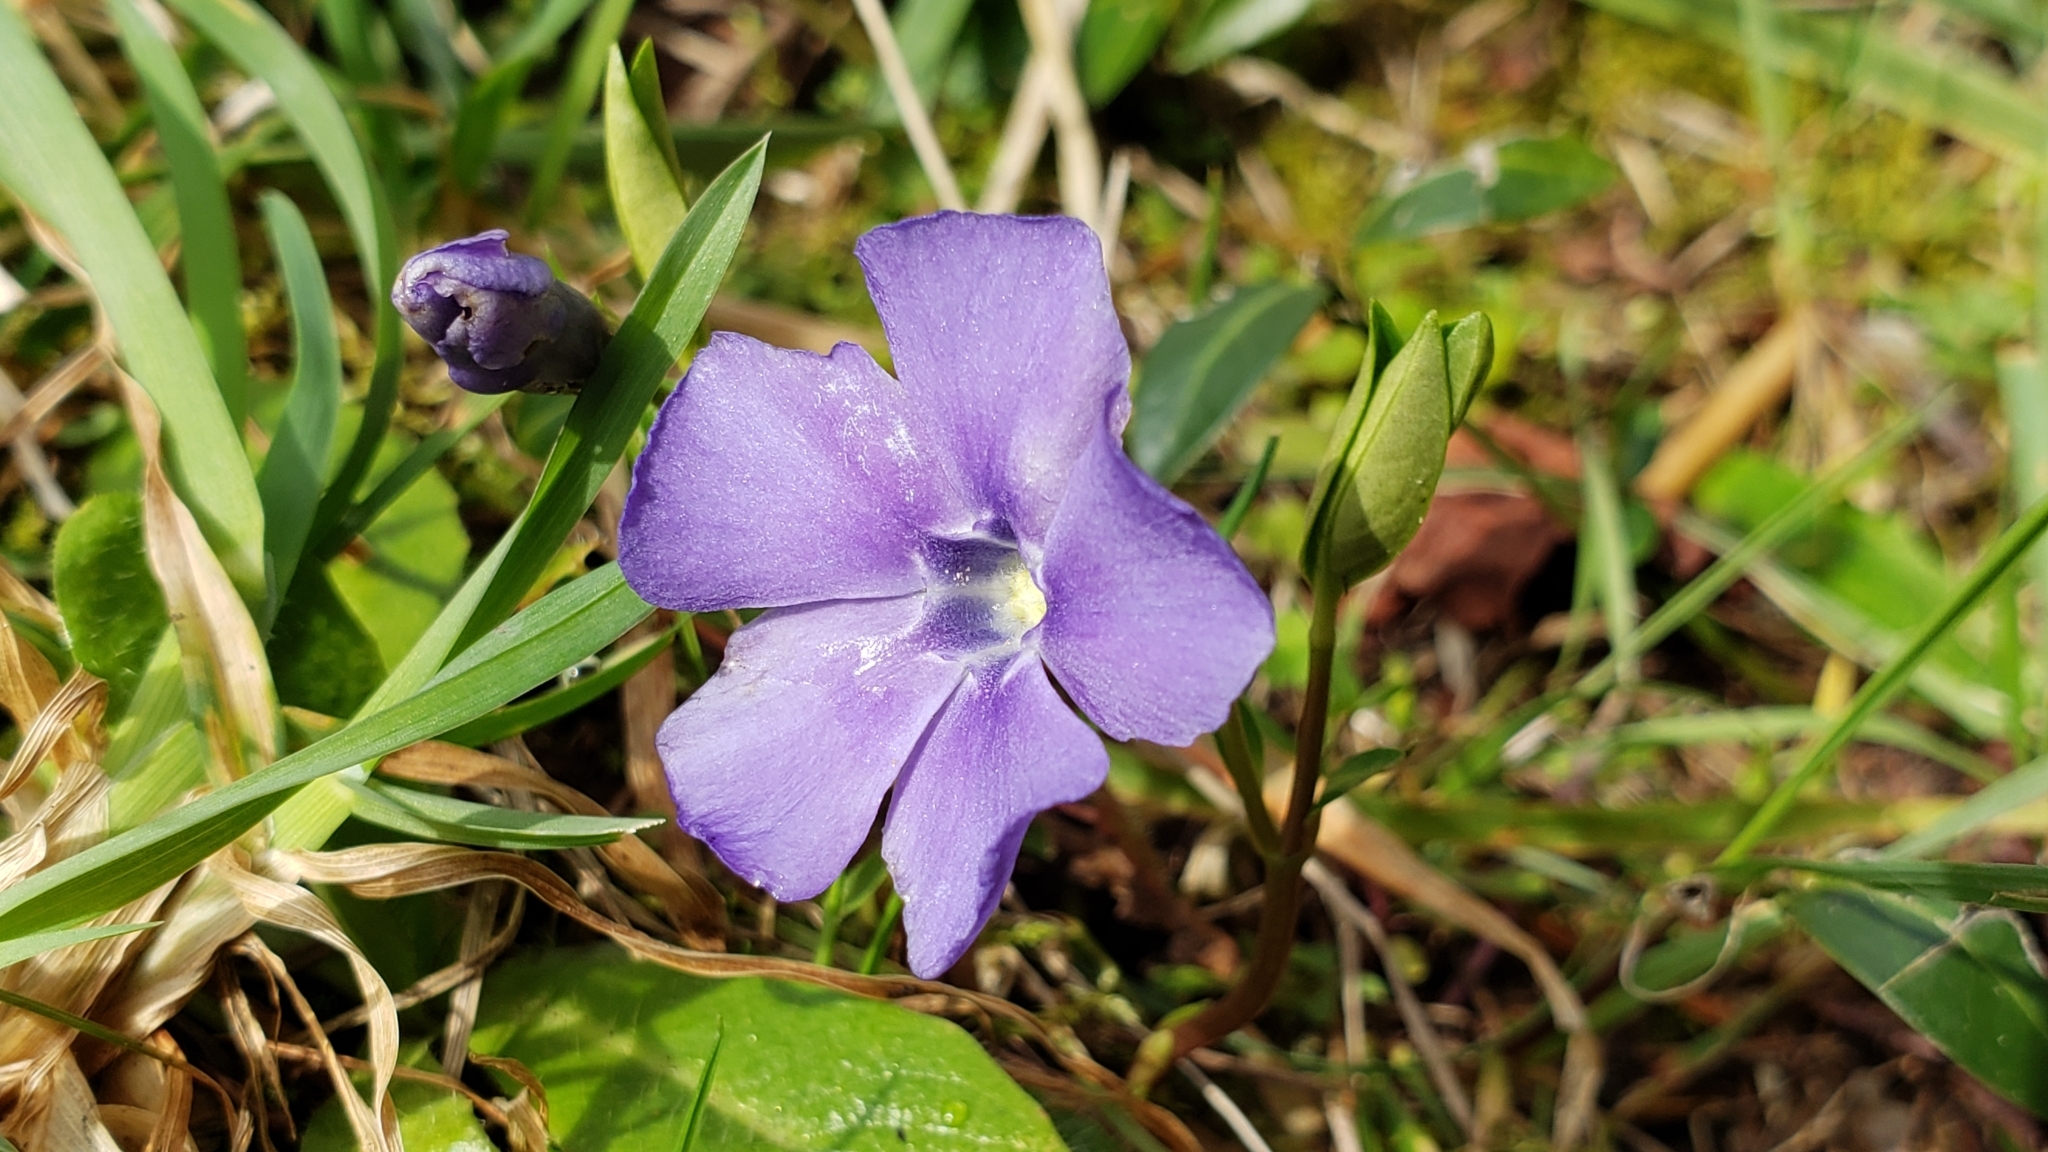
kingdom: Plantae
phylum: Tracheophyta
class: Magnoliopsida
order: Gentianales
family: Apocynaceae
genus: Vinca
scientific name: Vinca minor
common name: Lesser periwinkle
